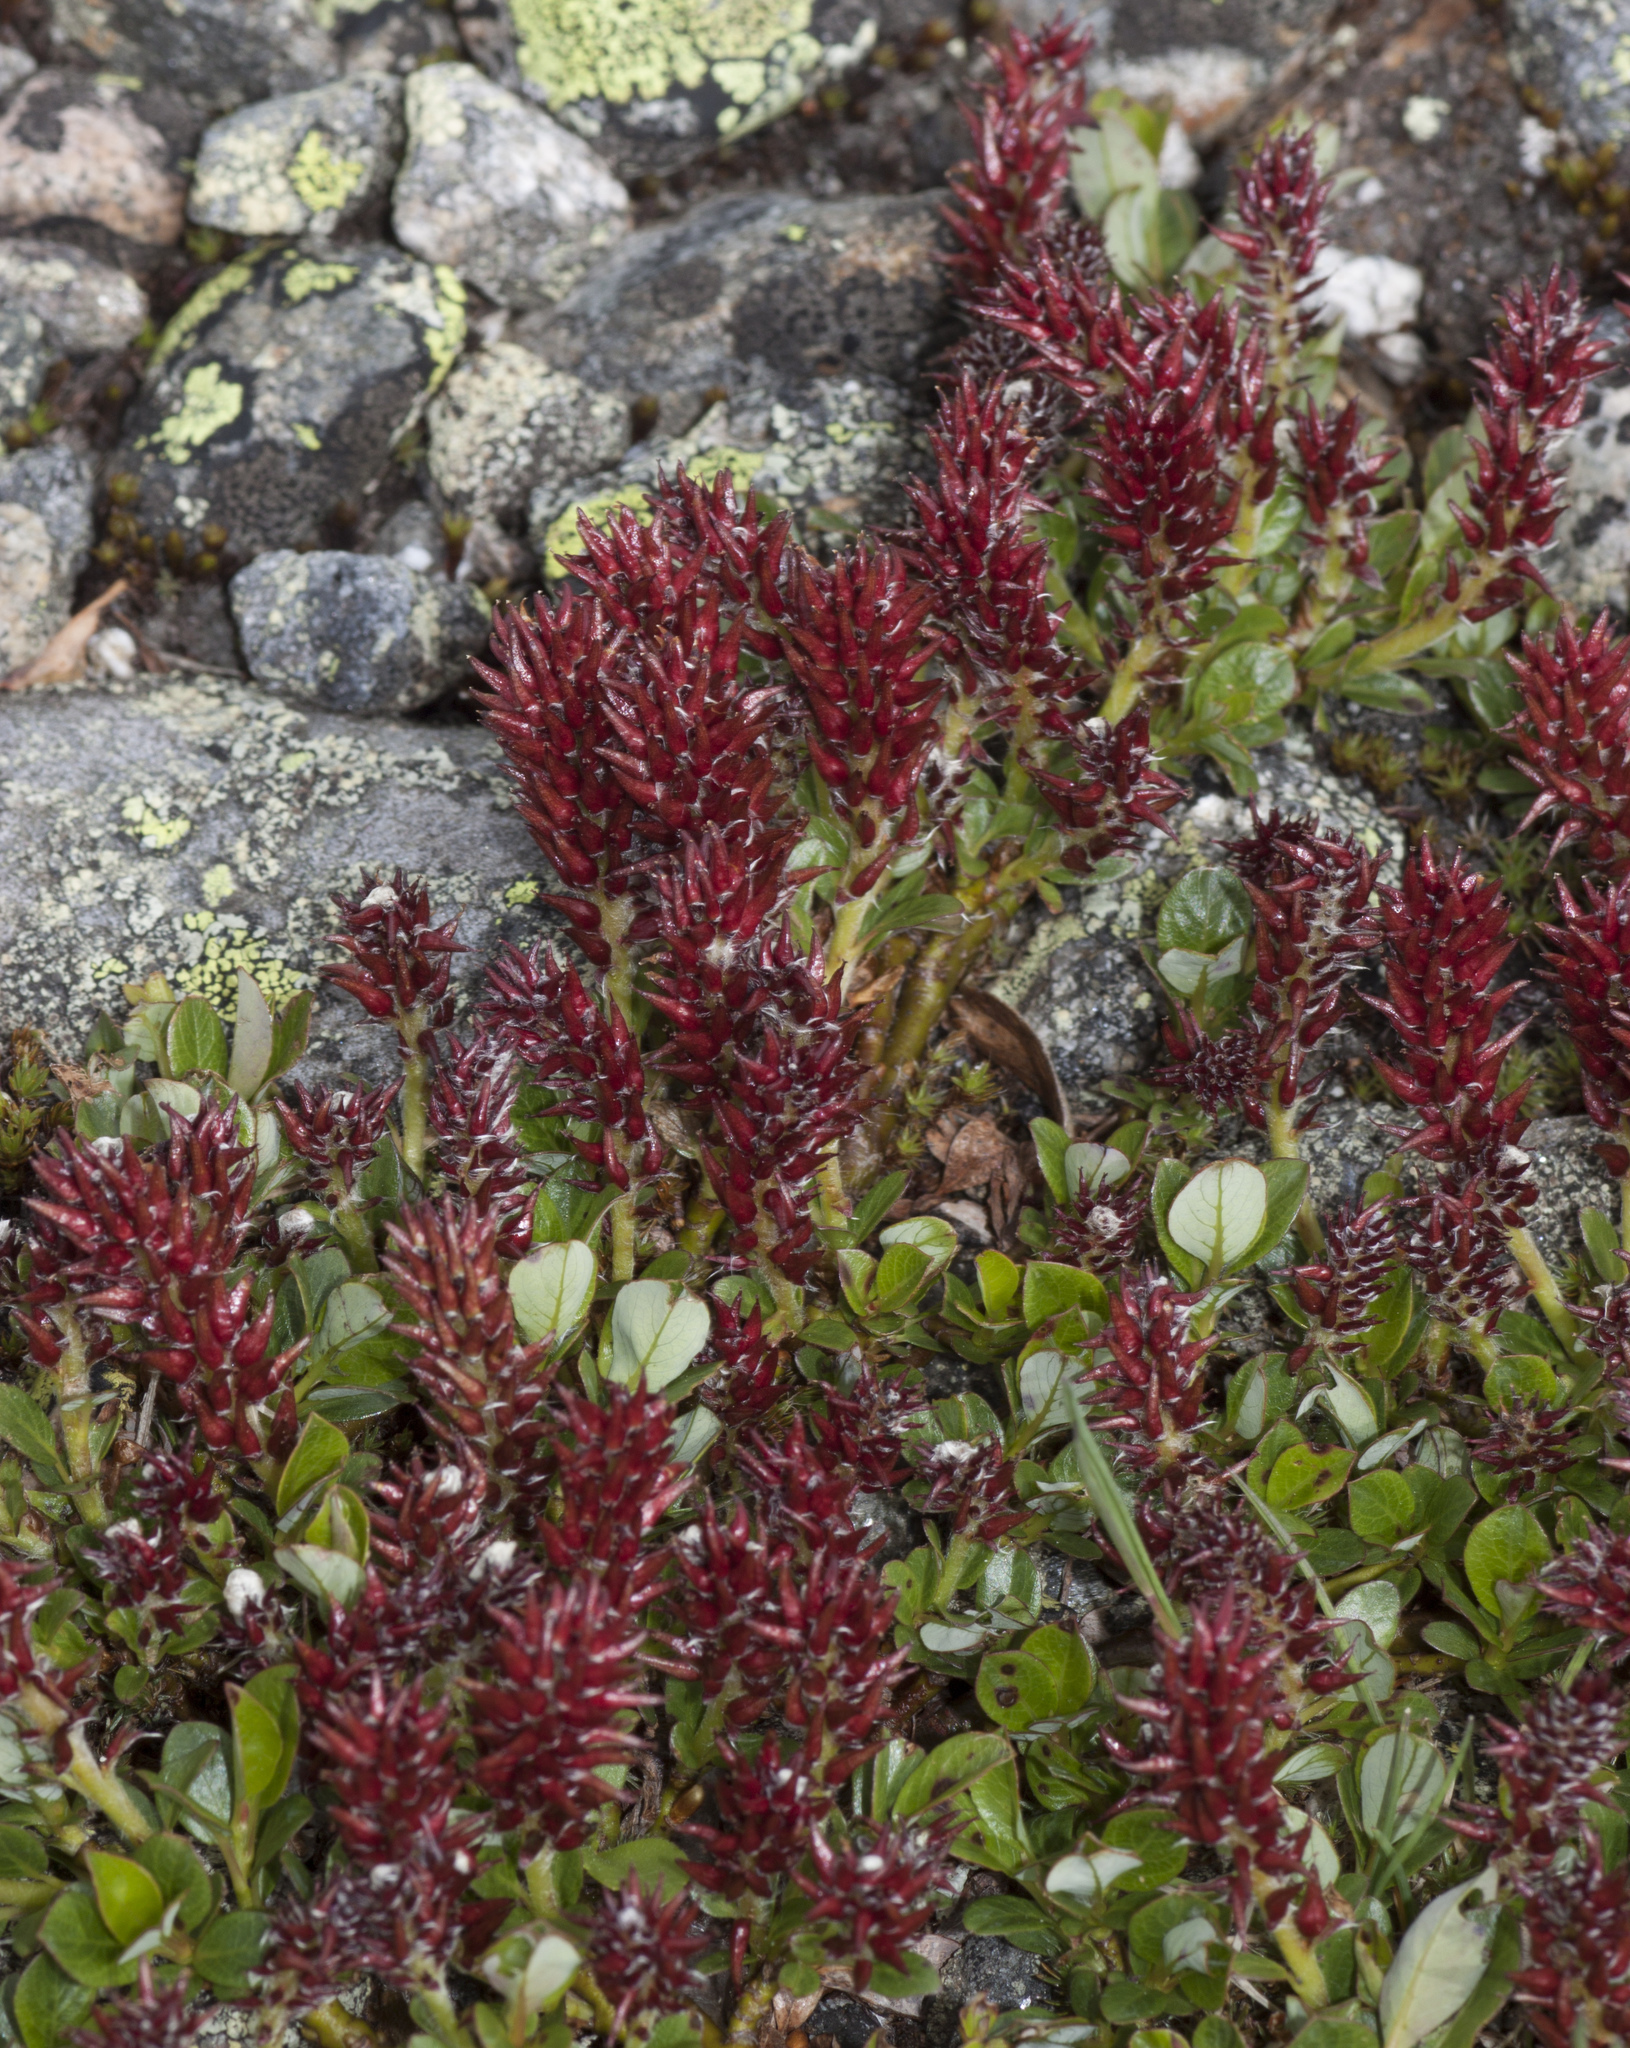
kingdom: Plantae
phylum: Tracheophyta
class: Magnoliopsida
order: Malpighiales
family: Salicaceae
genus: Salix
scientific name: Salix uva-ursi
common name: Bearberry willow
